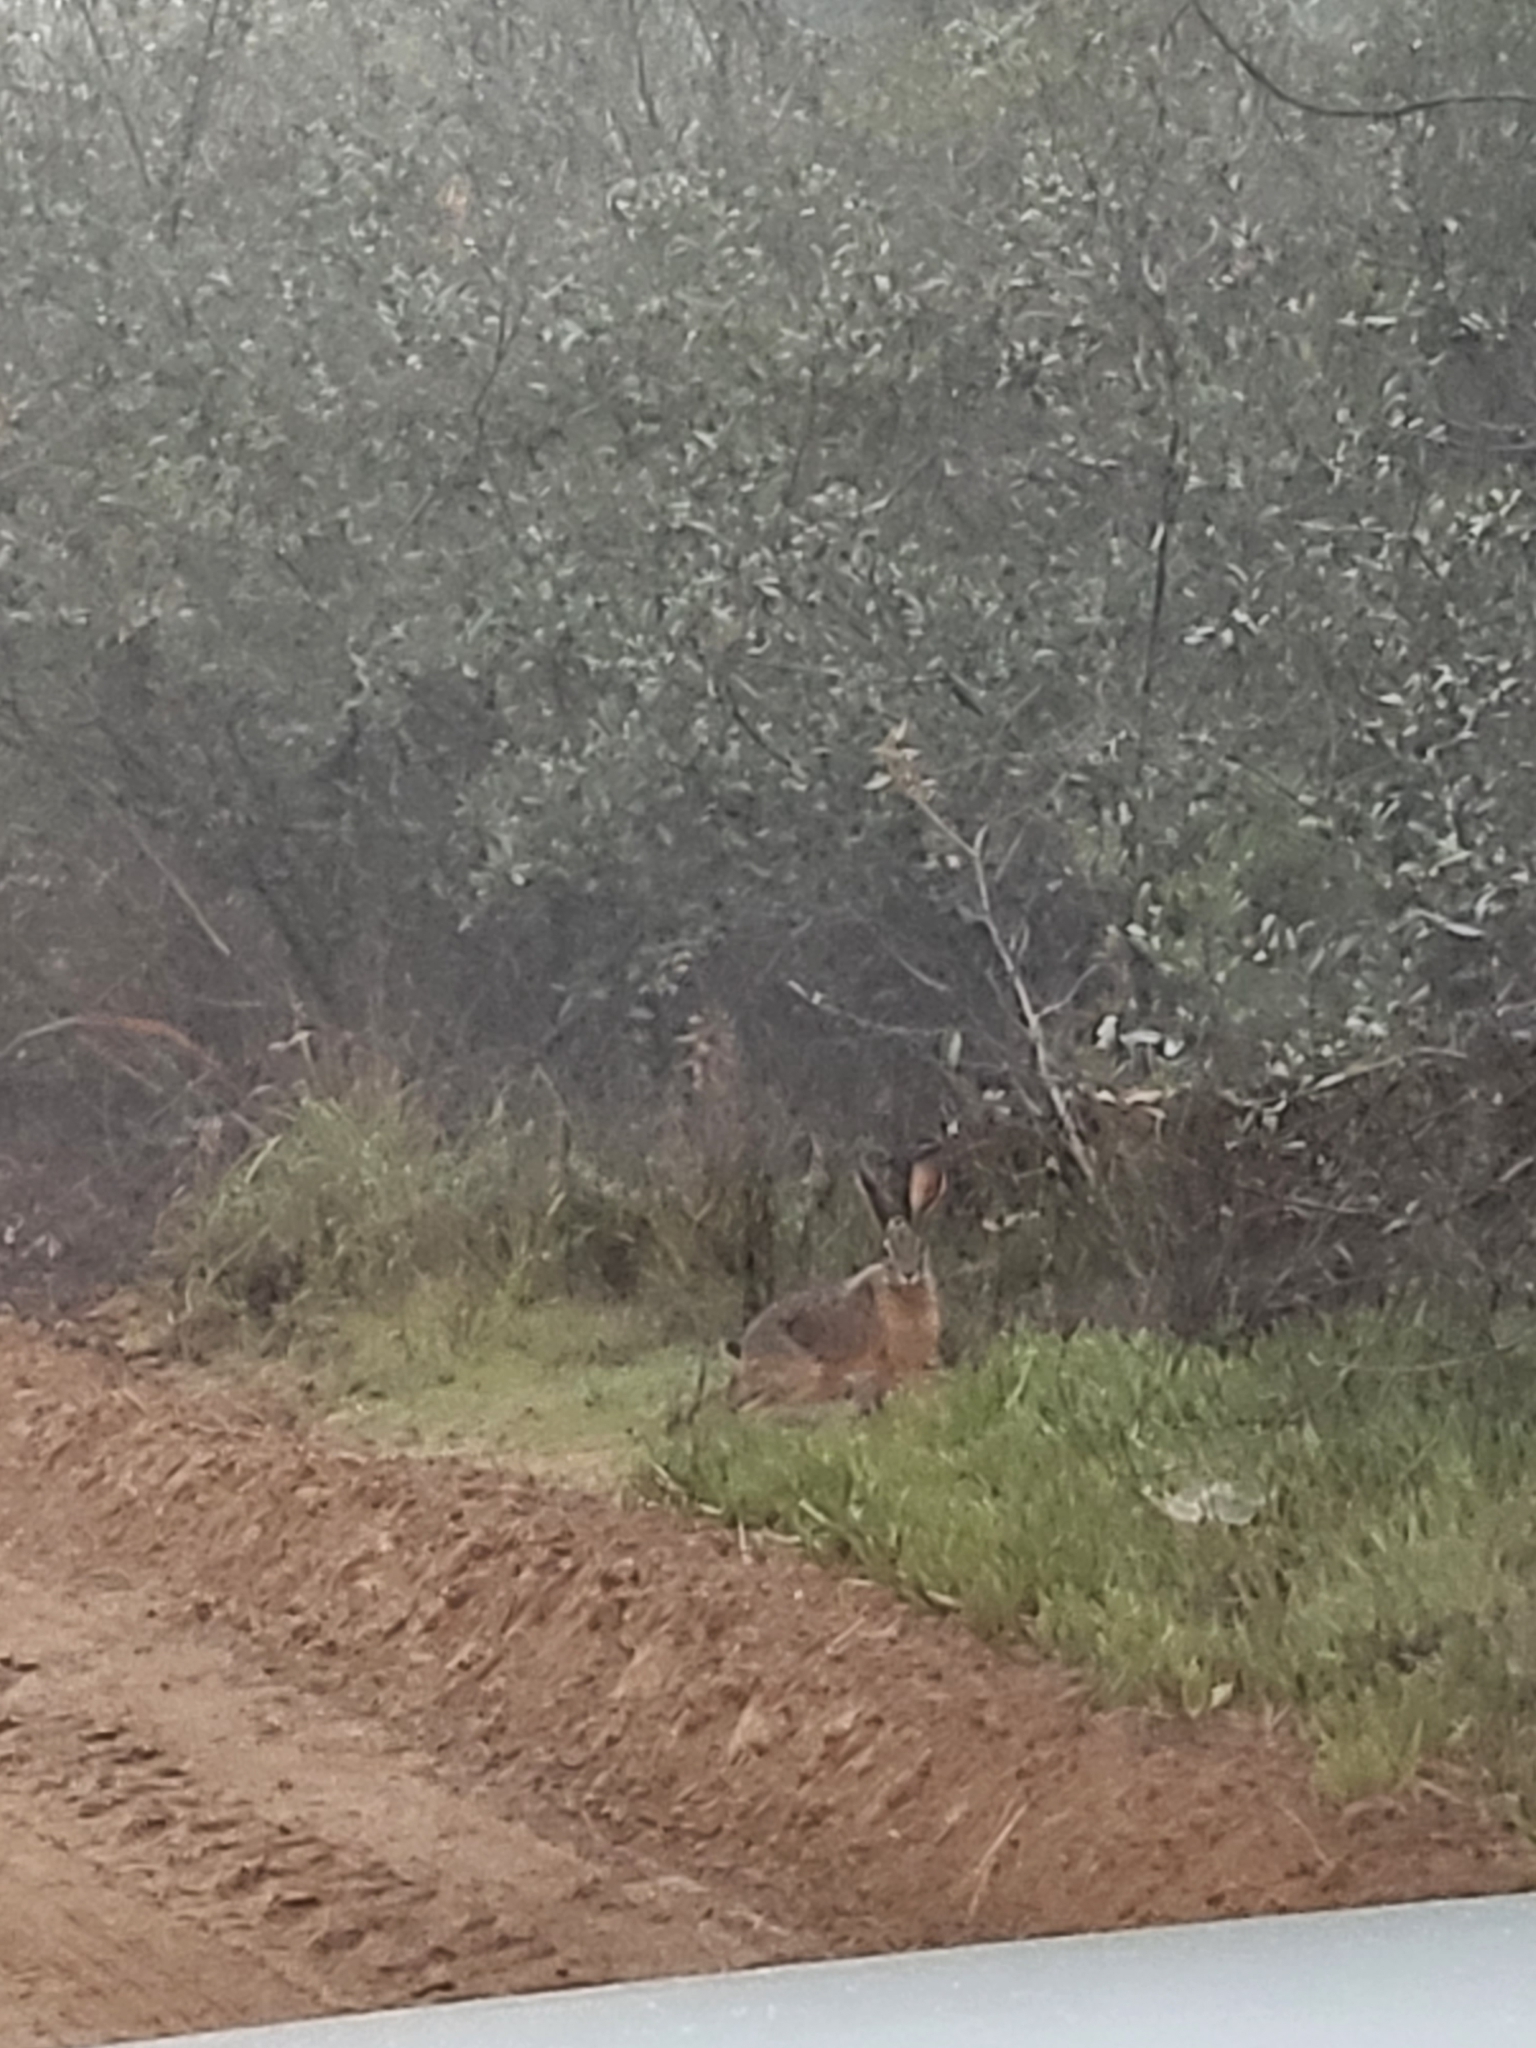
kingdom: Animalia
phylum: Chordata
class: Mammalia
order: Lagomorpha
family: Leporidae
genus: Lepus
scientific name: Lepus californicus
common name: Black-tailed jackrabbit
